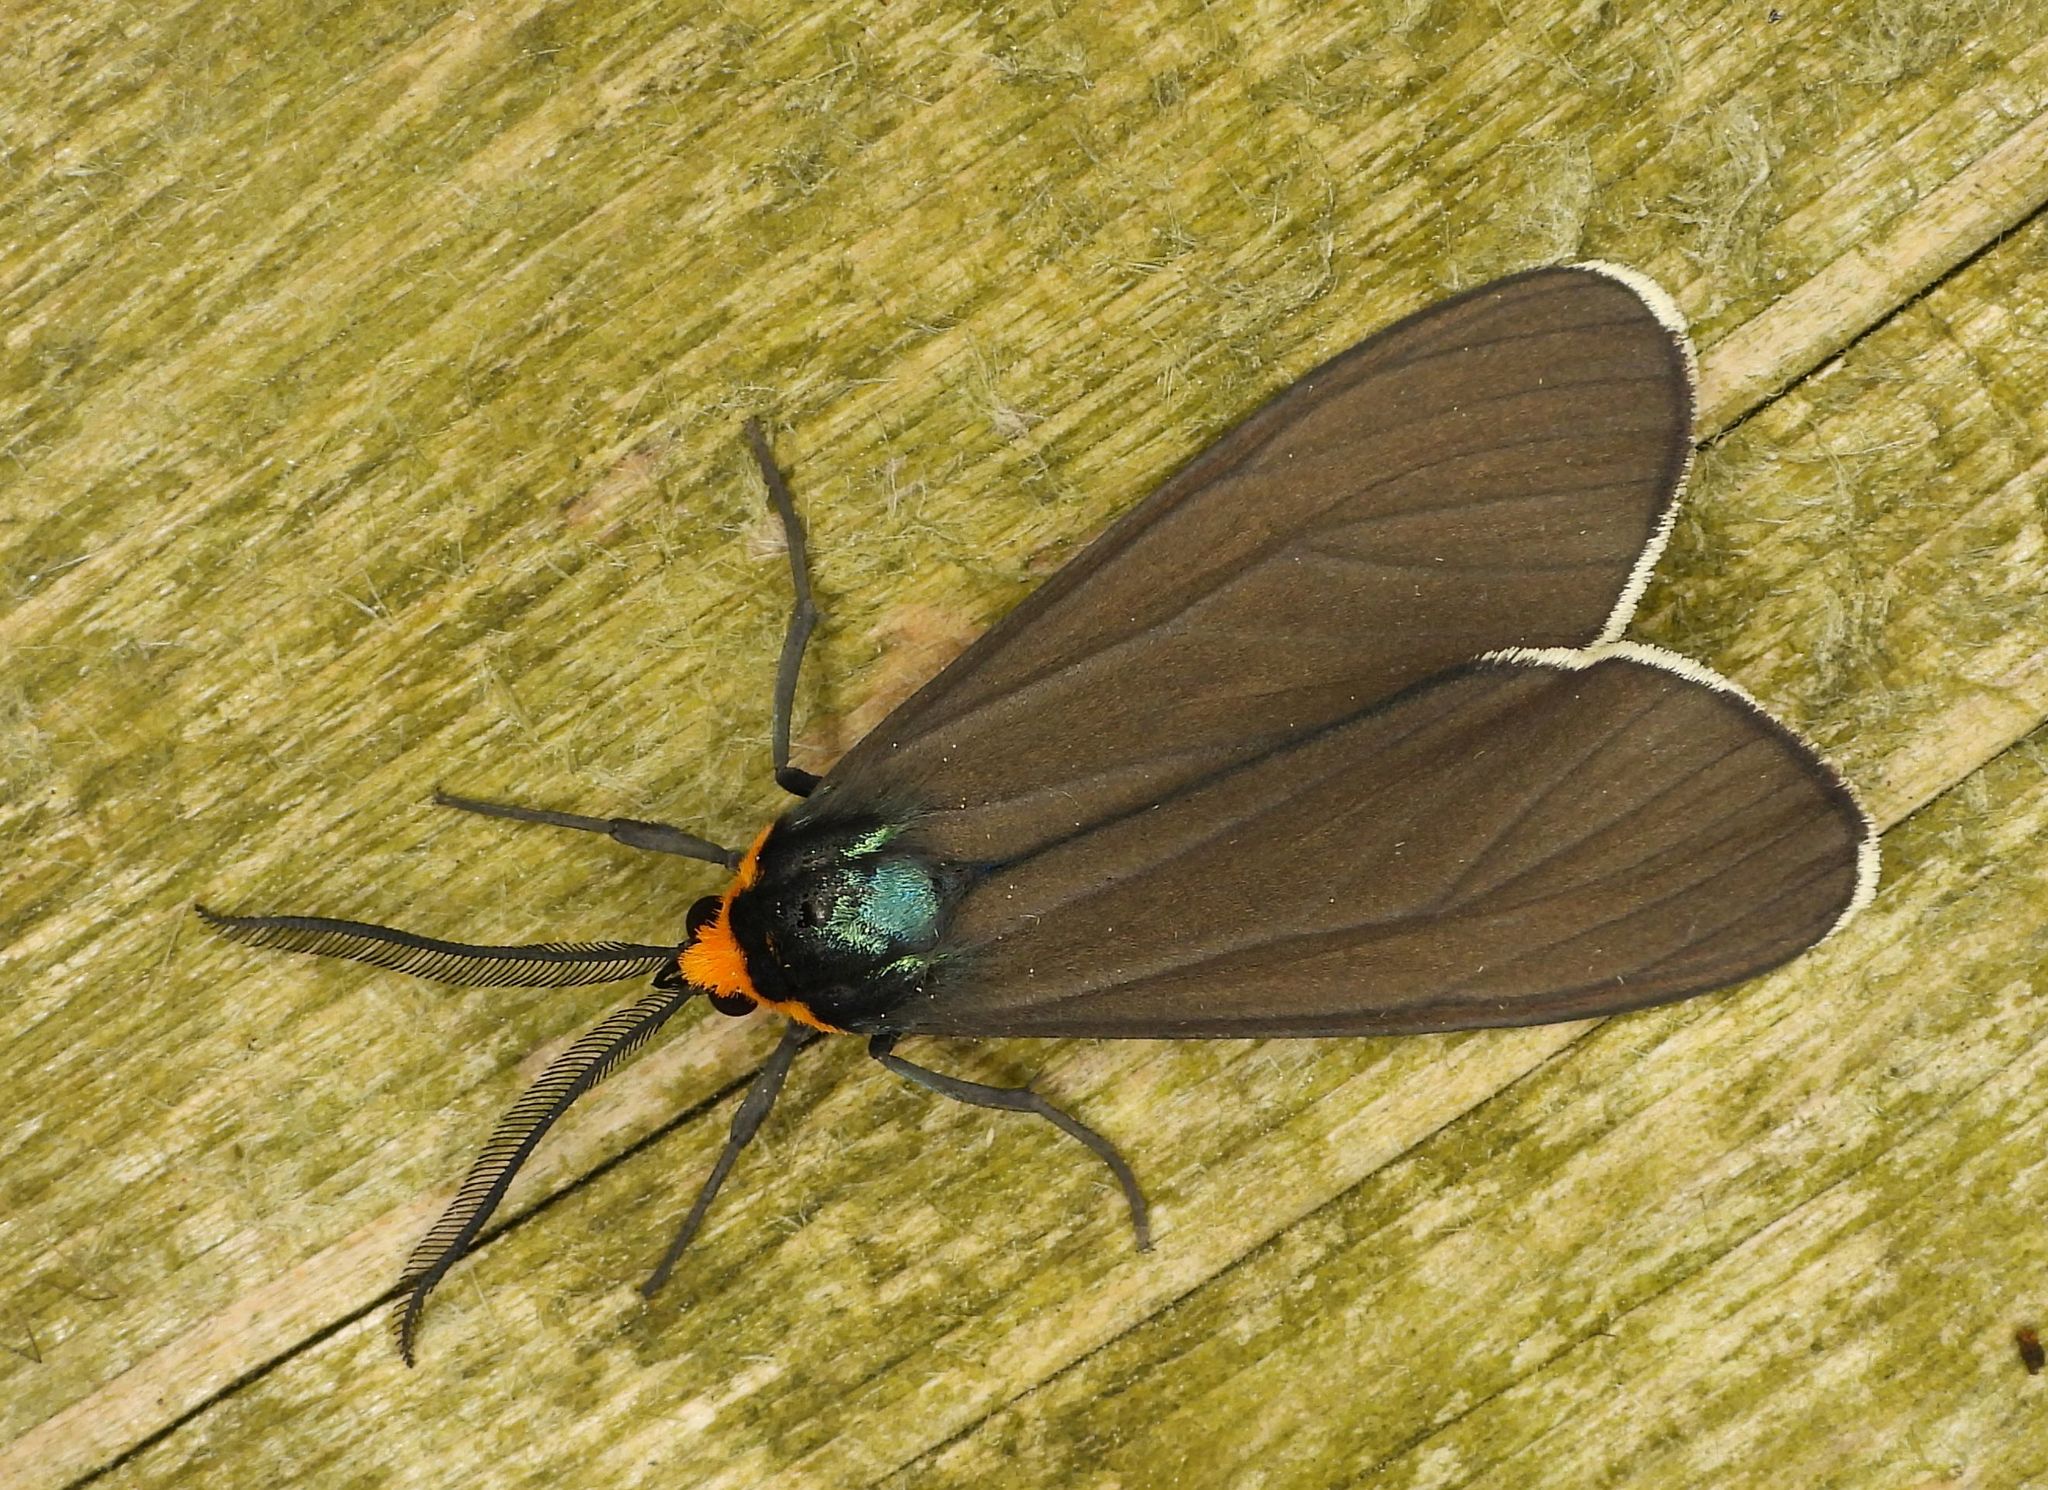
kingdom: Animalia
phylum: Arthropoda
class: Insecta
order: Lepidoptera
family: Erebidae
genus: Ctenucha
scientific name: Ctenucha virginica
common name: Virginia ctenucha moth
